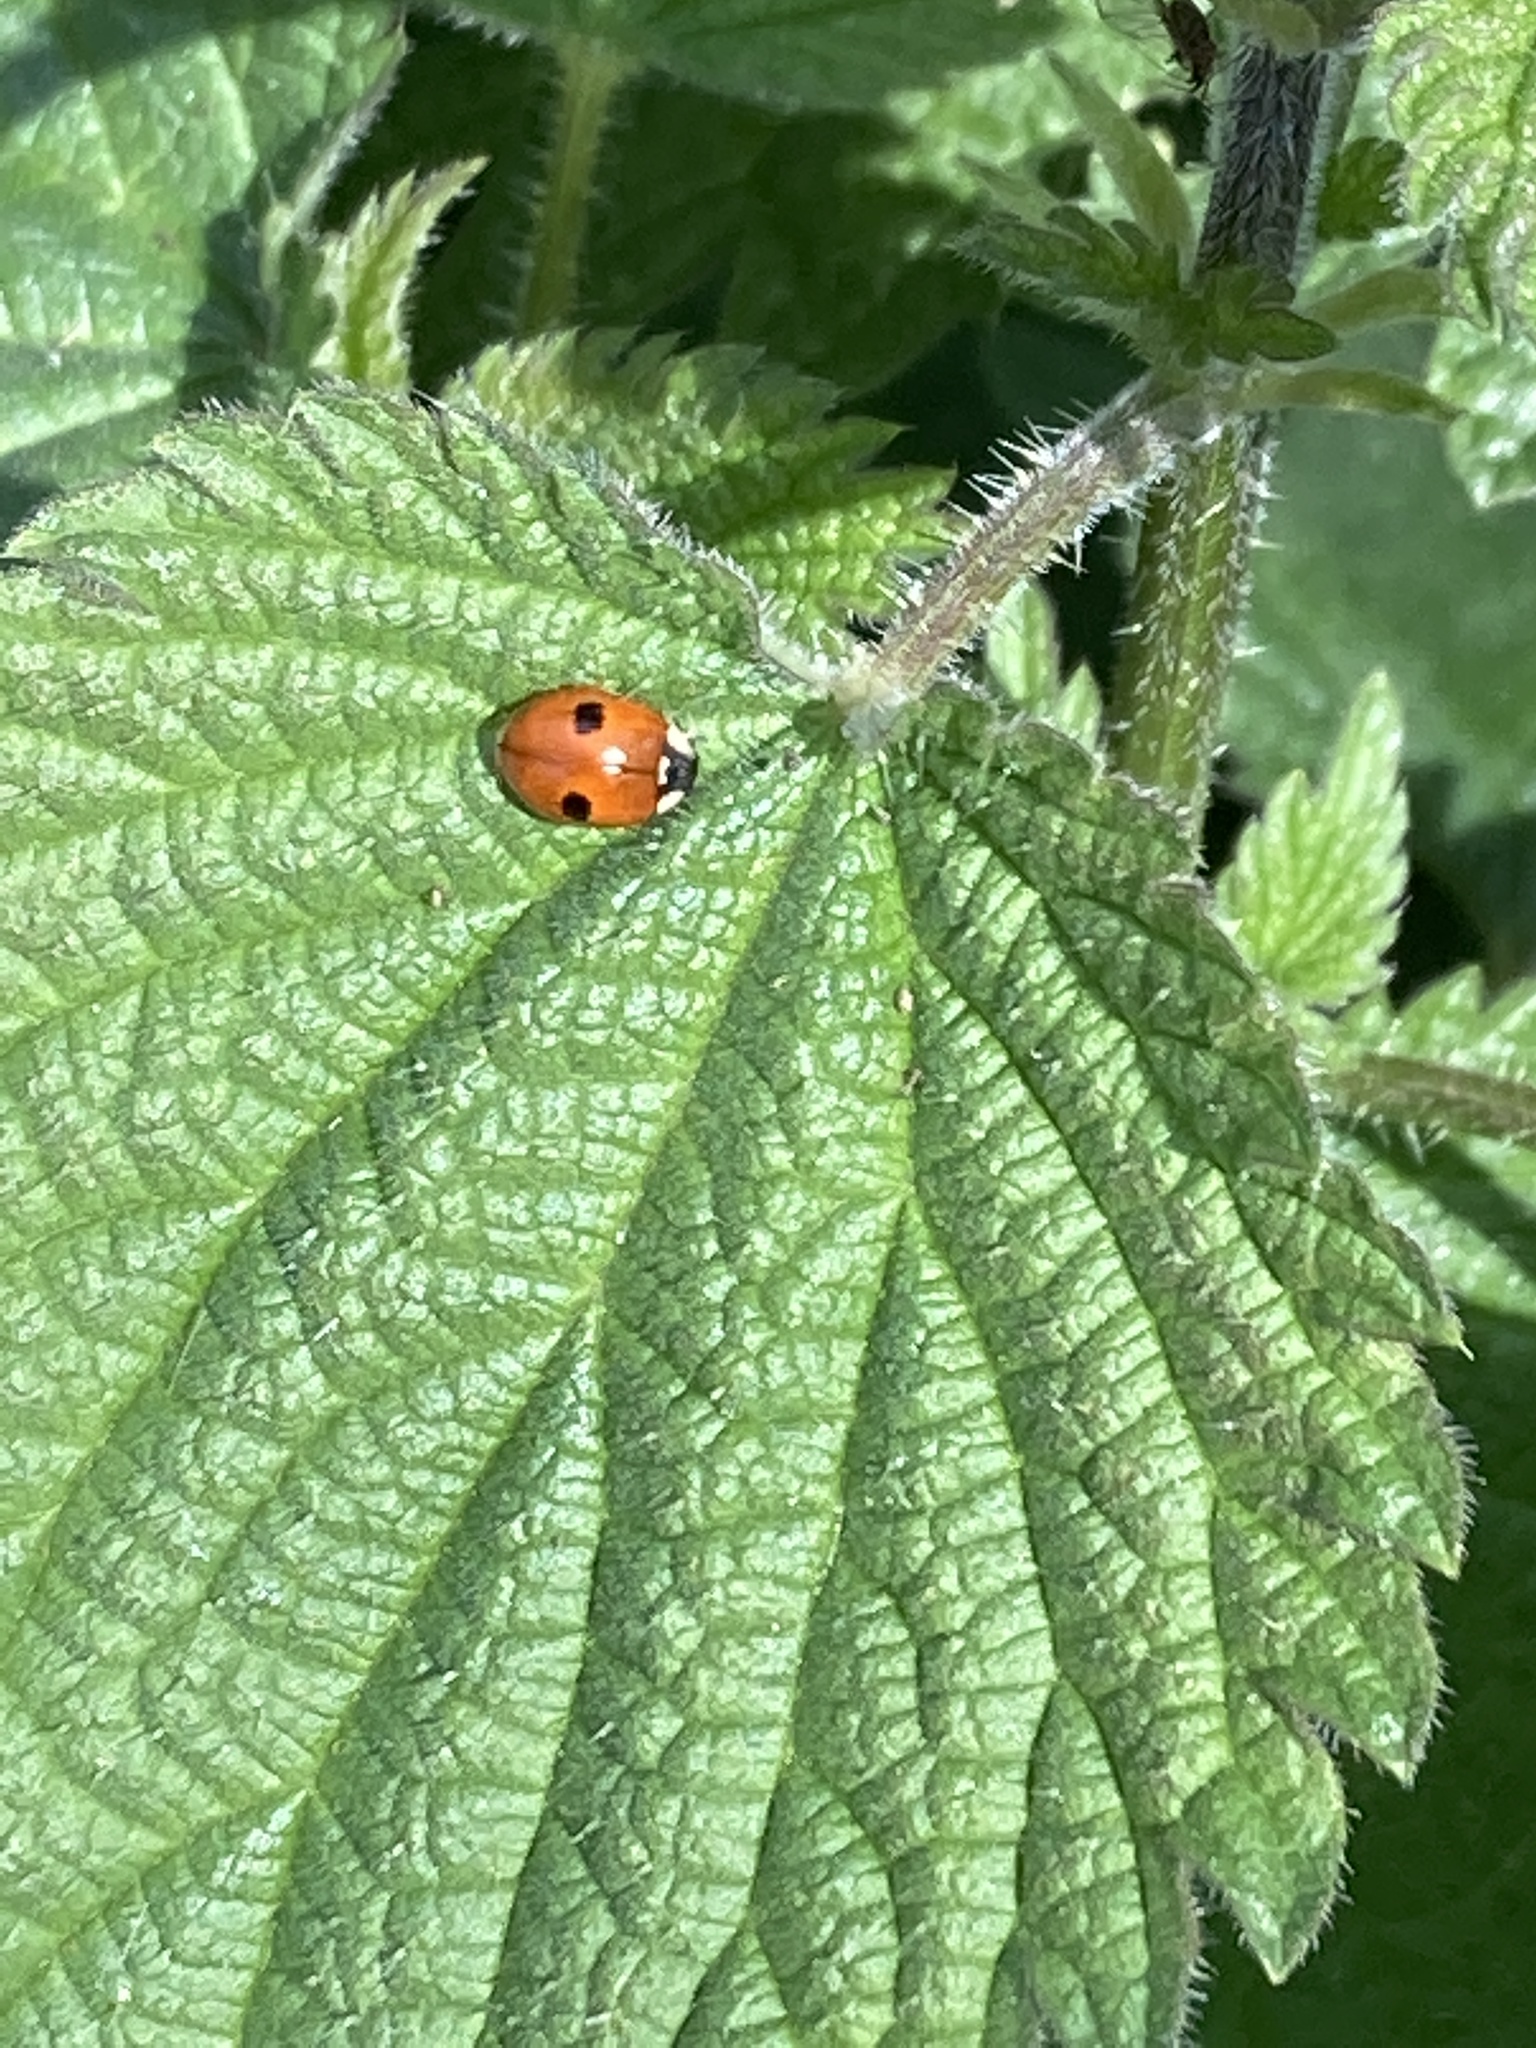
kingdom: Animalia
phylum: Arthropoda
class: Insecta
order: Coleoptera
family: Coccinellidae
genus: Adalia
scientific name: Adalia bipunctata
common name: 2-spot ladybird
